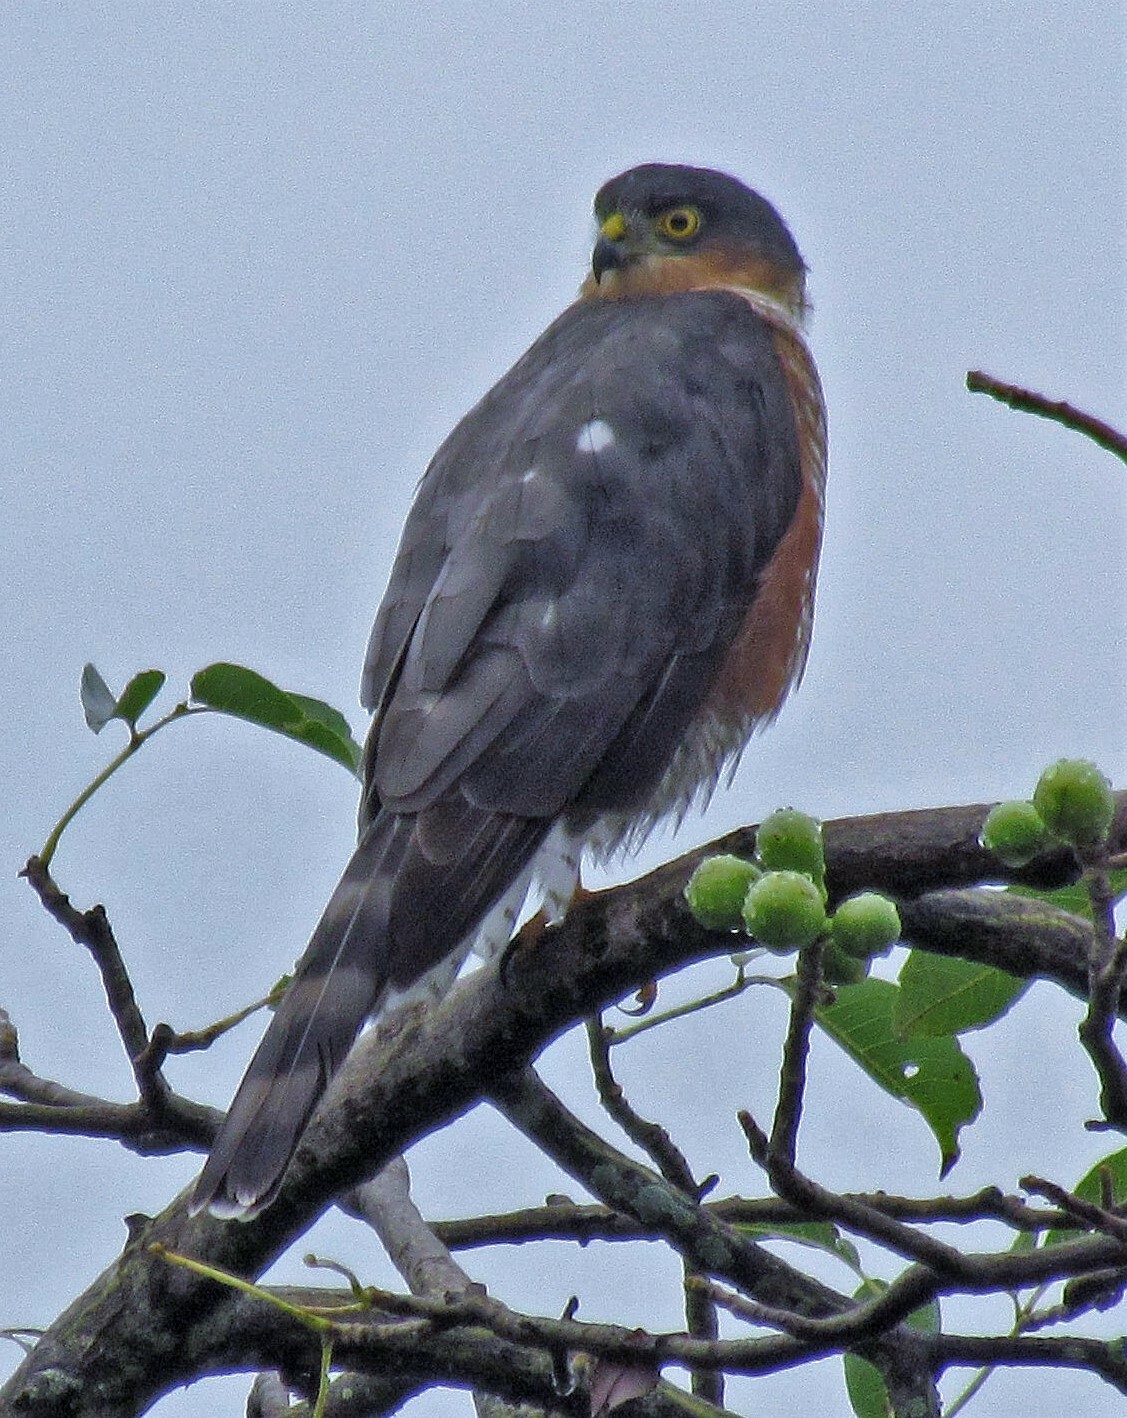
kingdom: Animalia
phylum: Chordata
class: Aves
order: Accipitriformes
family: Accipitridae
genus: Accipiter
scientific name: Accipiter striatus
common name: Sharp-shinned hawk
